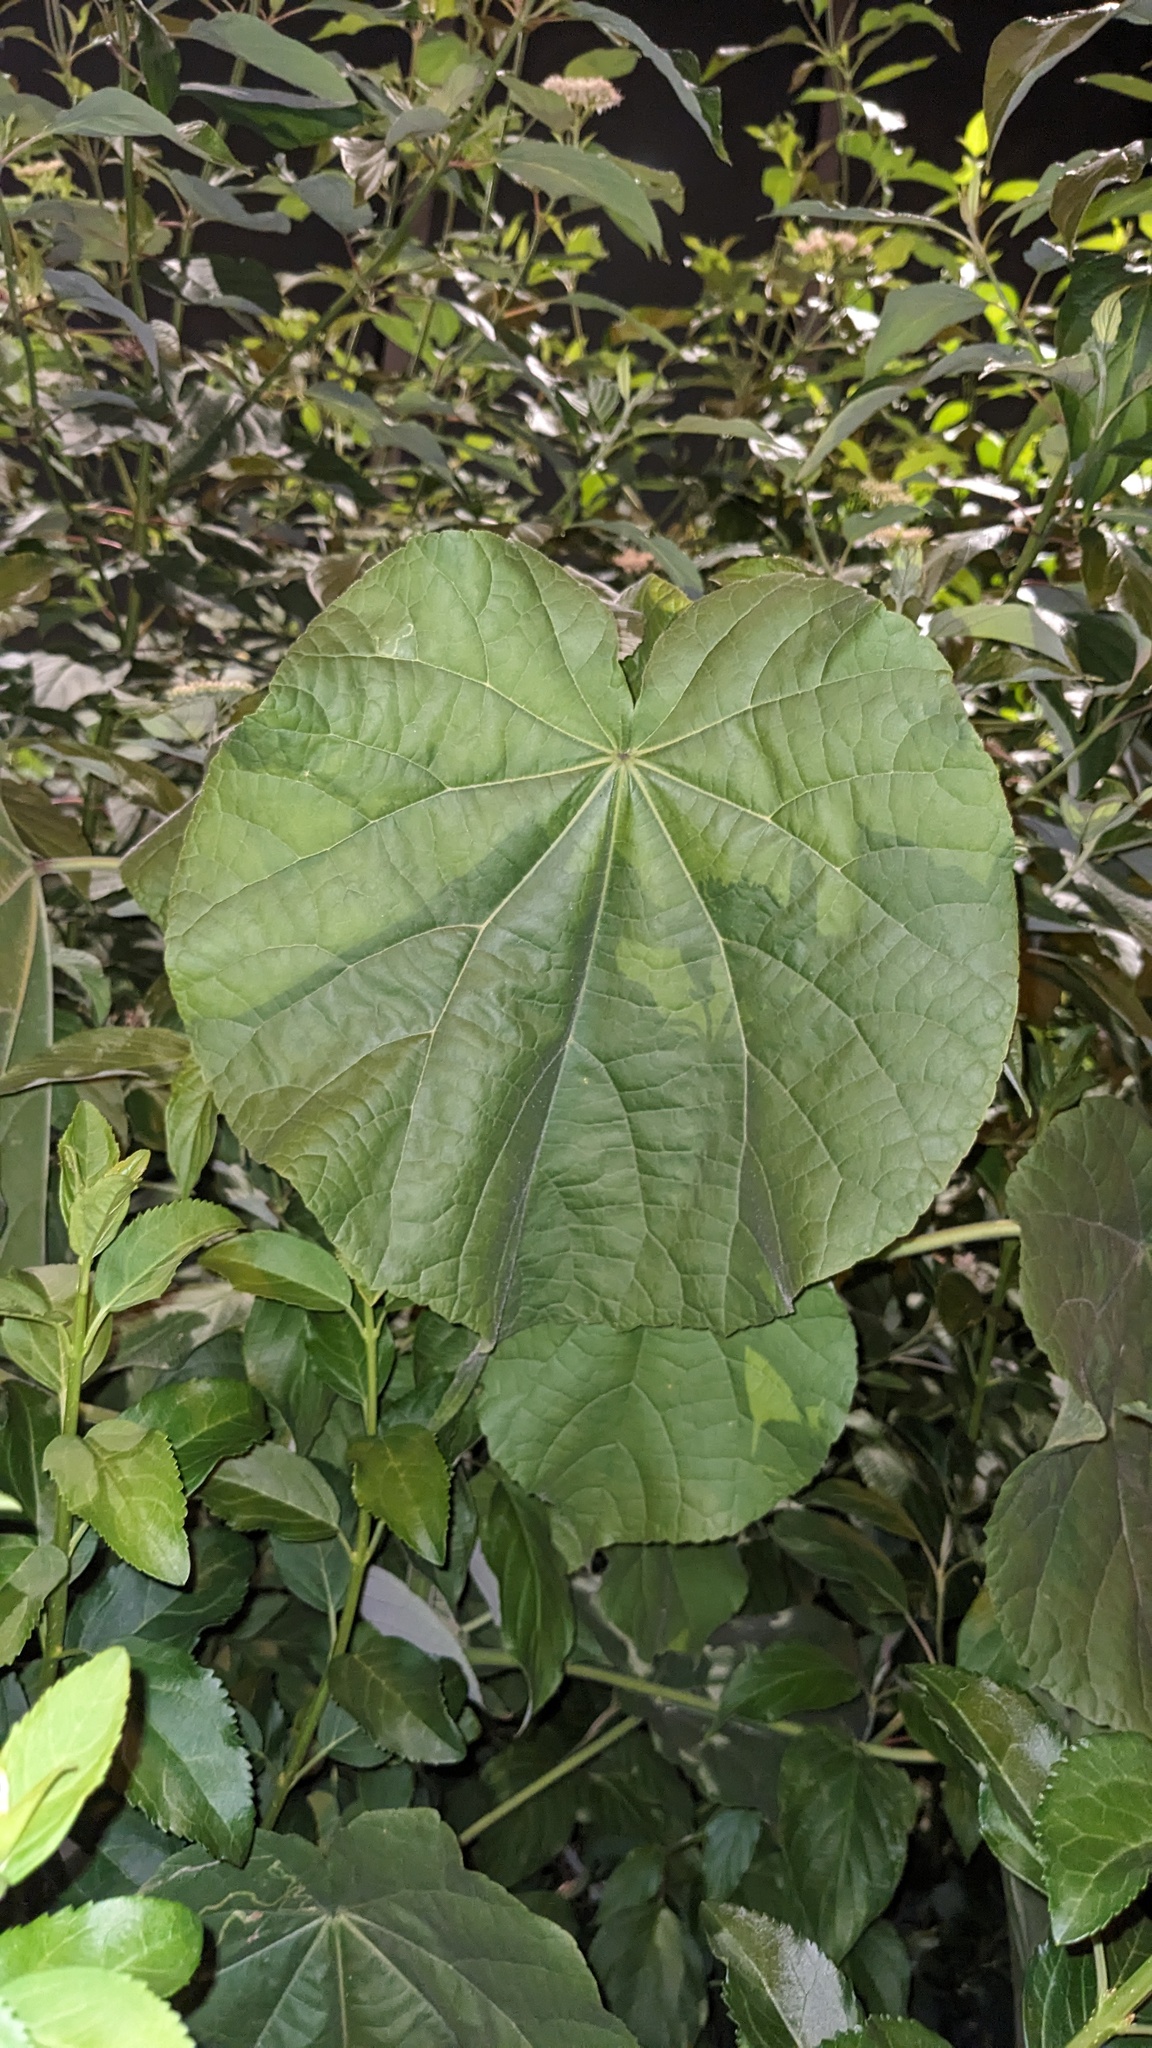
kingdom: Plantae
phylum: Tracheophyta
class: Magnoliopsida
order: Malvales
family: Malvaceae
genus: Abutilon
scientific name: Abutilon theophrasti
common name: Velvetleaf
